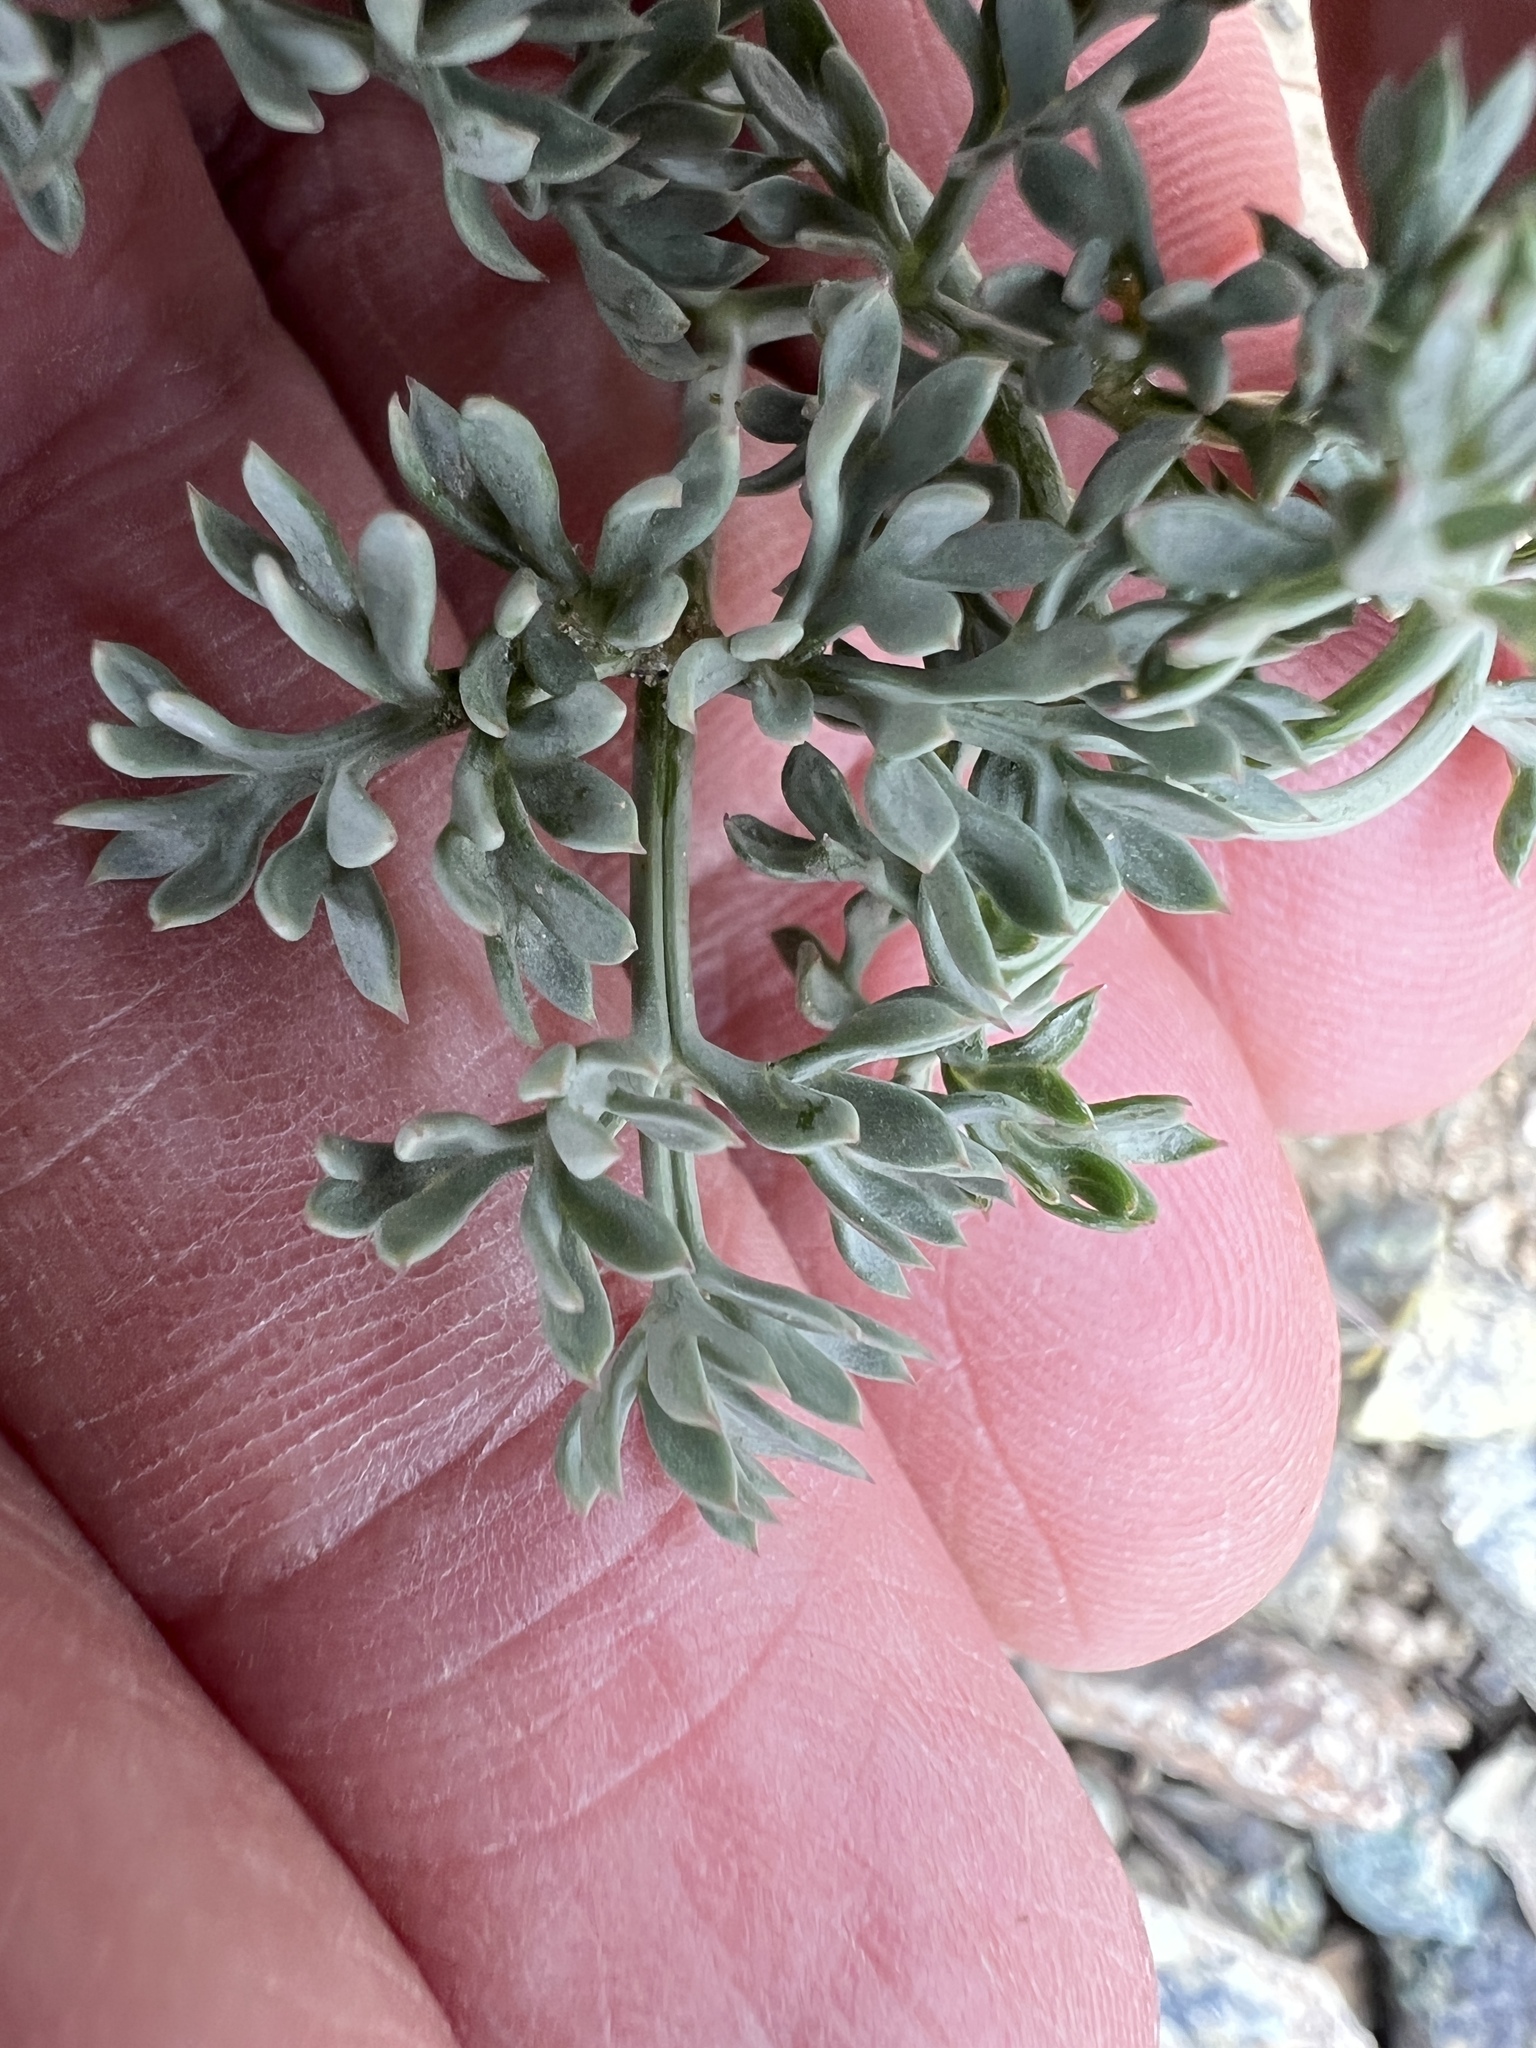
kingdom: Plantae
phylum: Tracheophyta
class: Magnoliopsida
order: Apiales
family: Apiaceae
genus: Lomatium
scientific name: Lomatium cuspidatum
